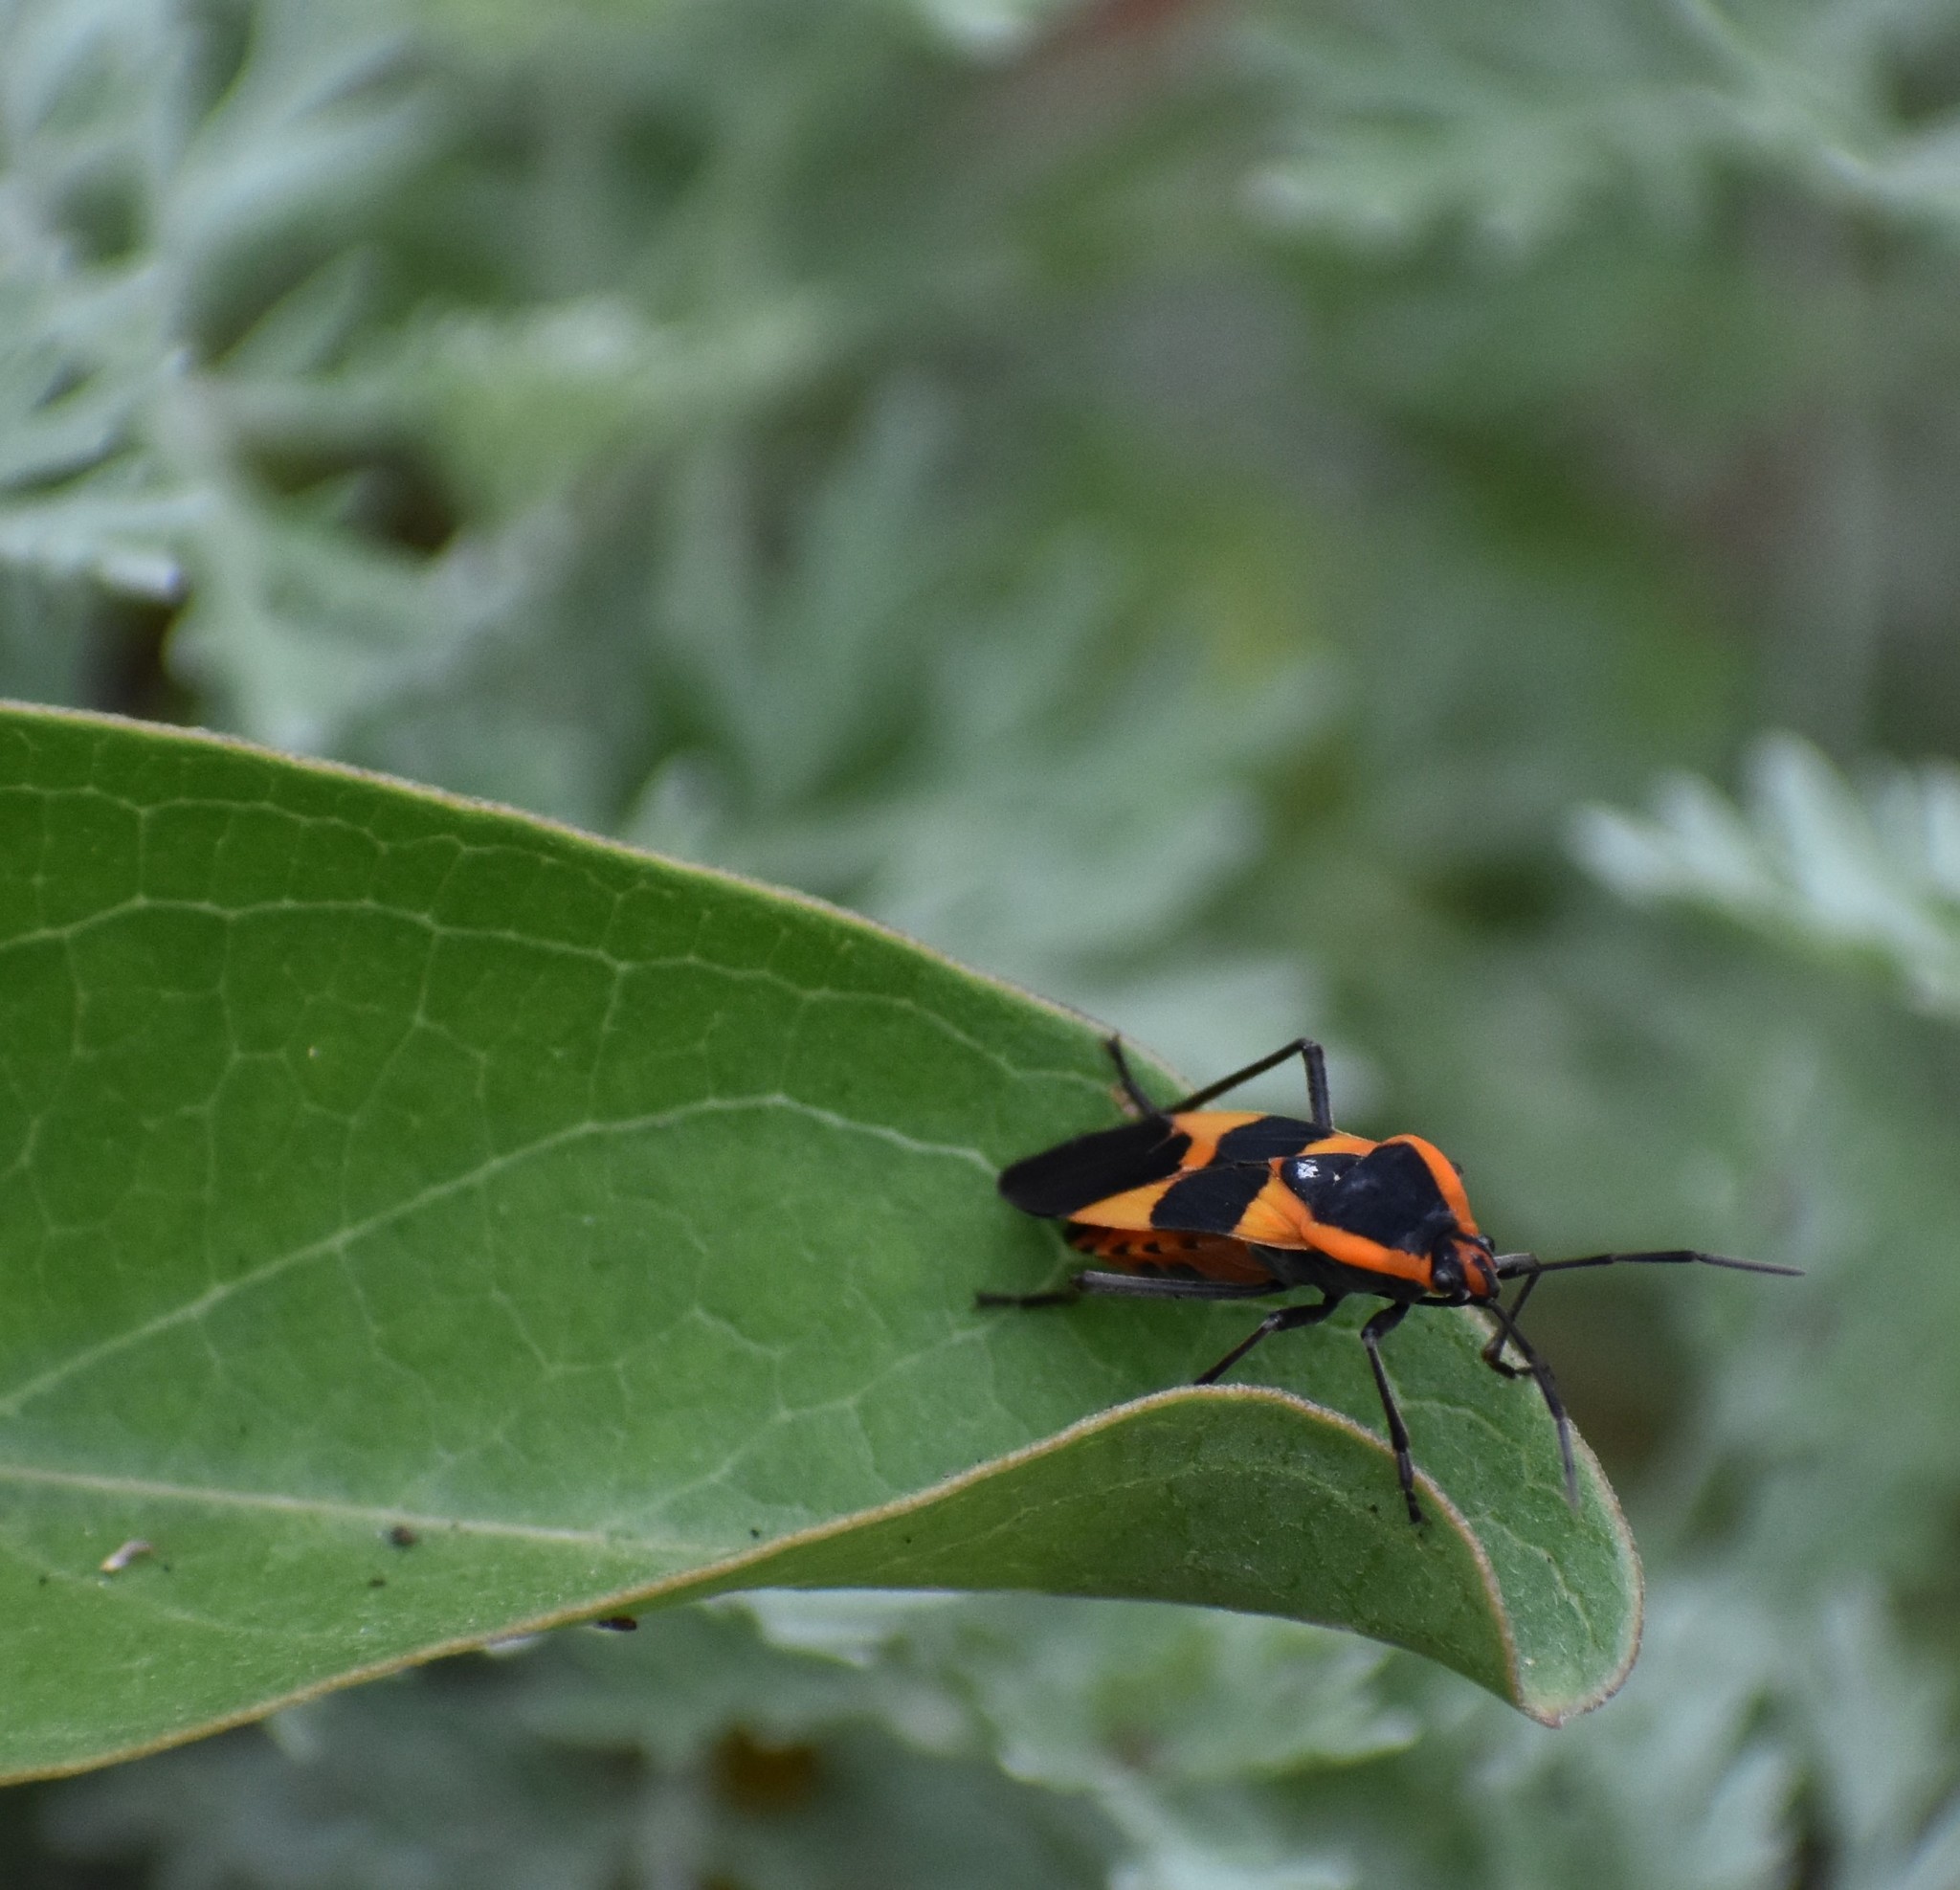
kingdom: Animalia
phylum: Arthropoda
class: Insecta
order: Hemiptera
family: Lygaeidae
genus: Oncopeltus
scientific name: Oncopeltus fasciatus
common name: Large milkweed bug
